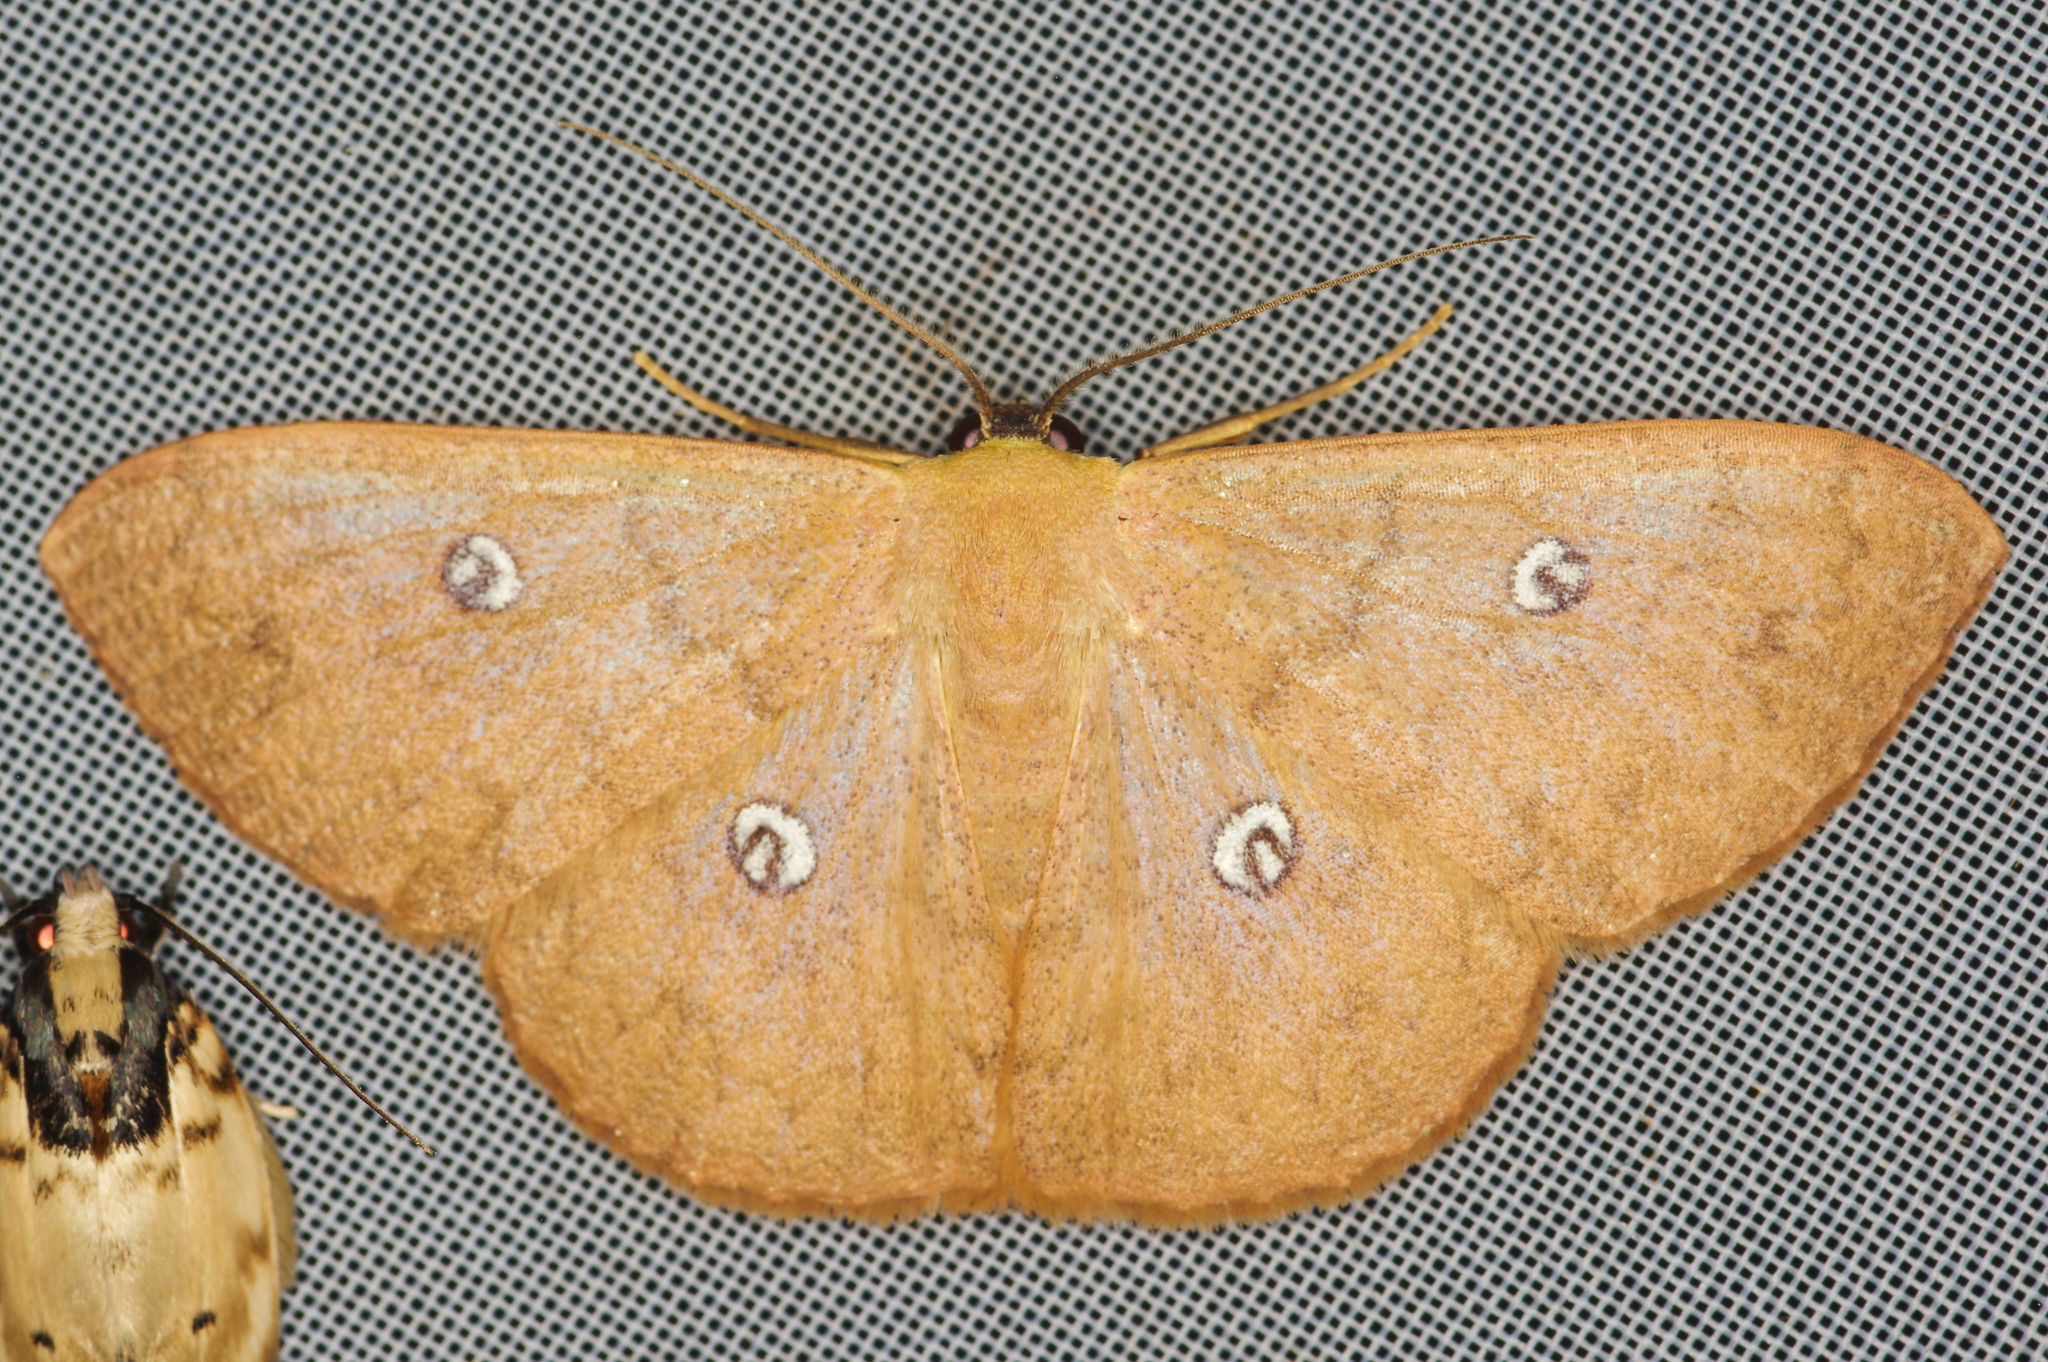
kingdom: Animalia
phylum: Arthropoda
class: Insecta
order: Lepidoptera
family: Geometridae
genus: Semaeopus
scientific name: Semaeopus illimitata
